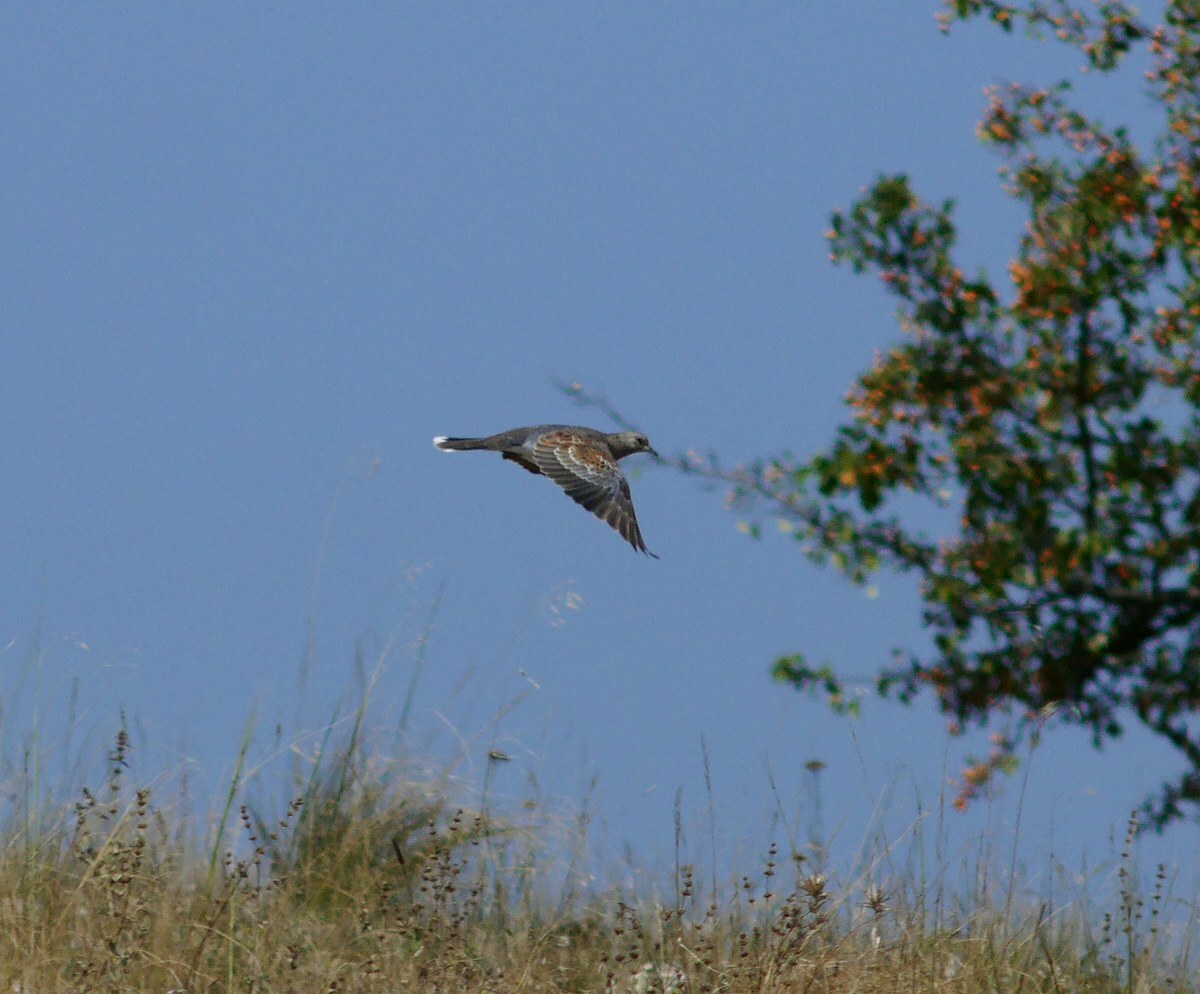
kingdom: Animalia
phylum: Chordata
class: Aves
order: Columbiformes
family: Columbidae
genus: Streptopelia
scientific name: Streptopelia turtur
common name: European turtle dove
